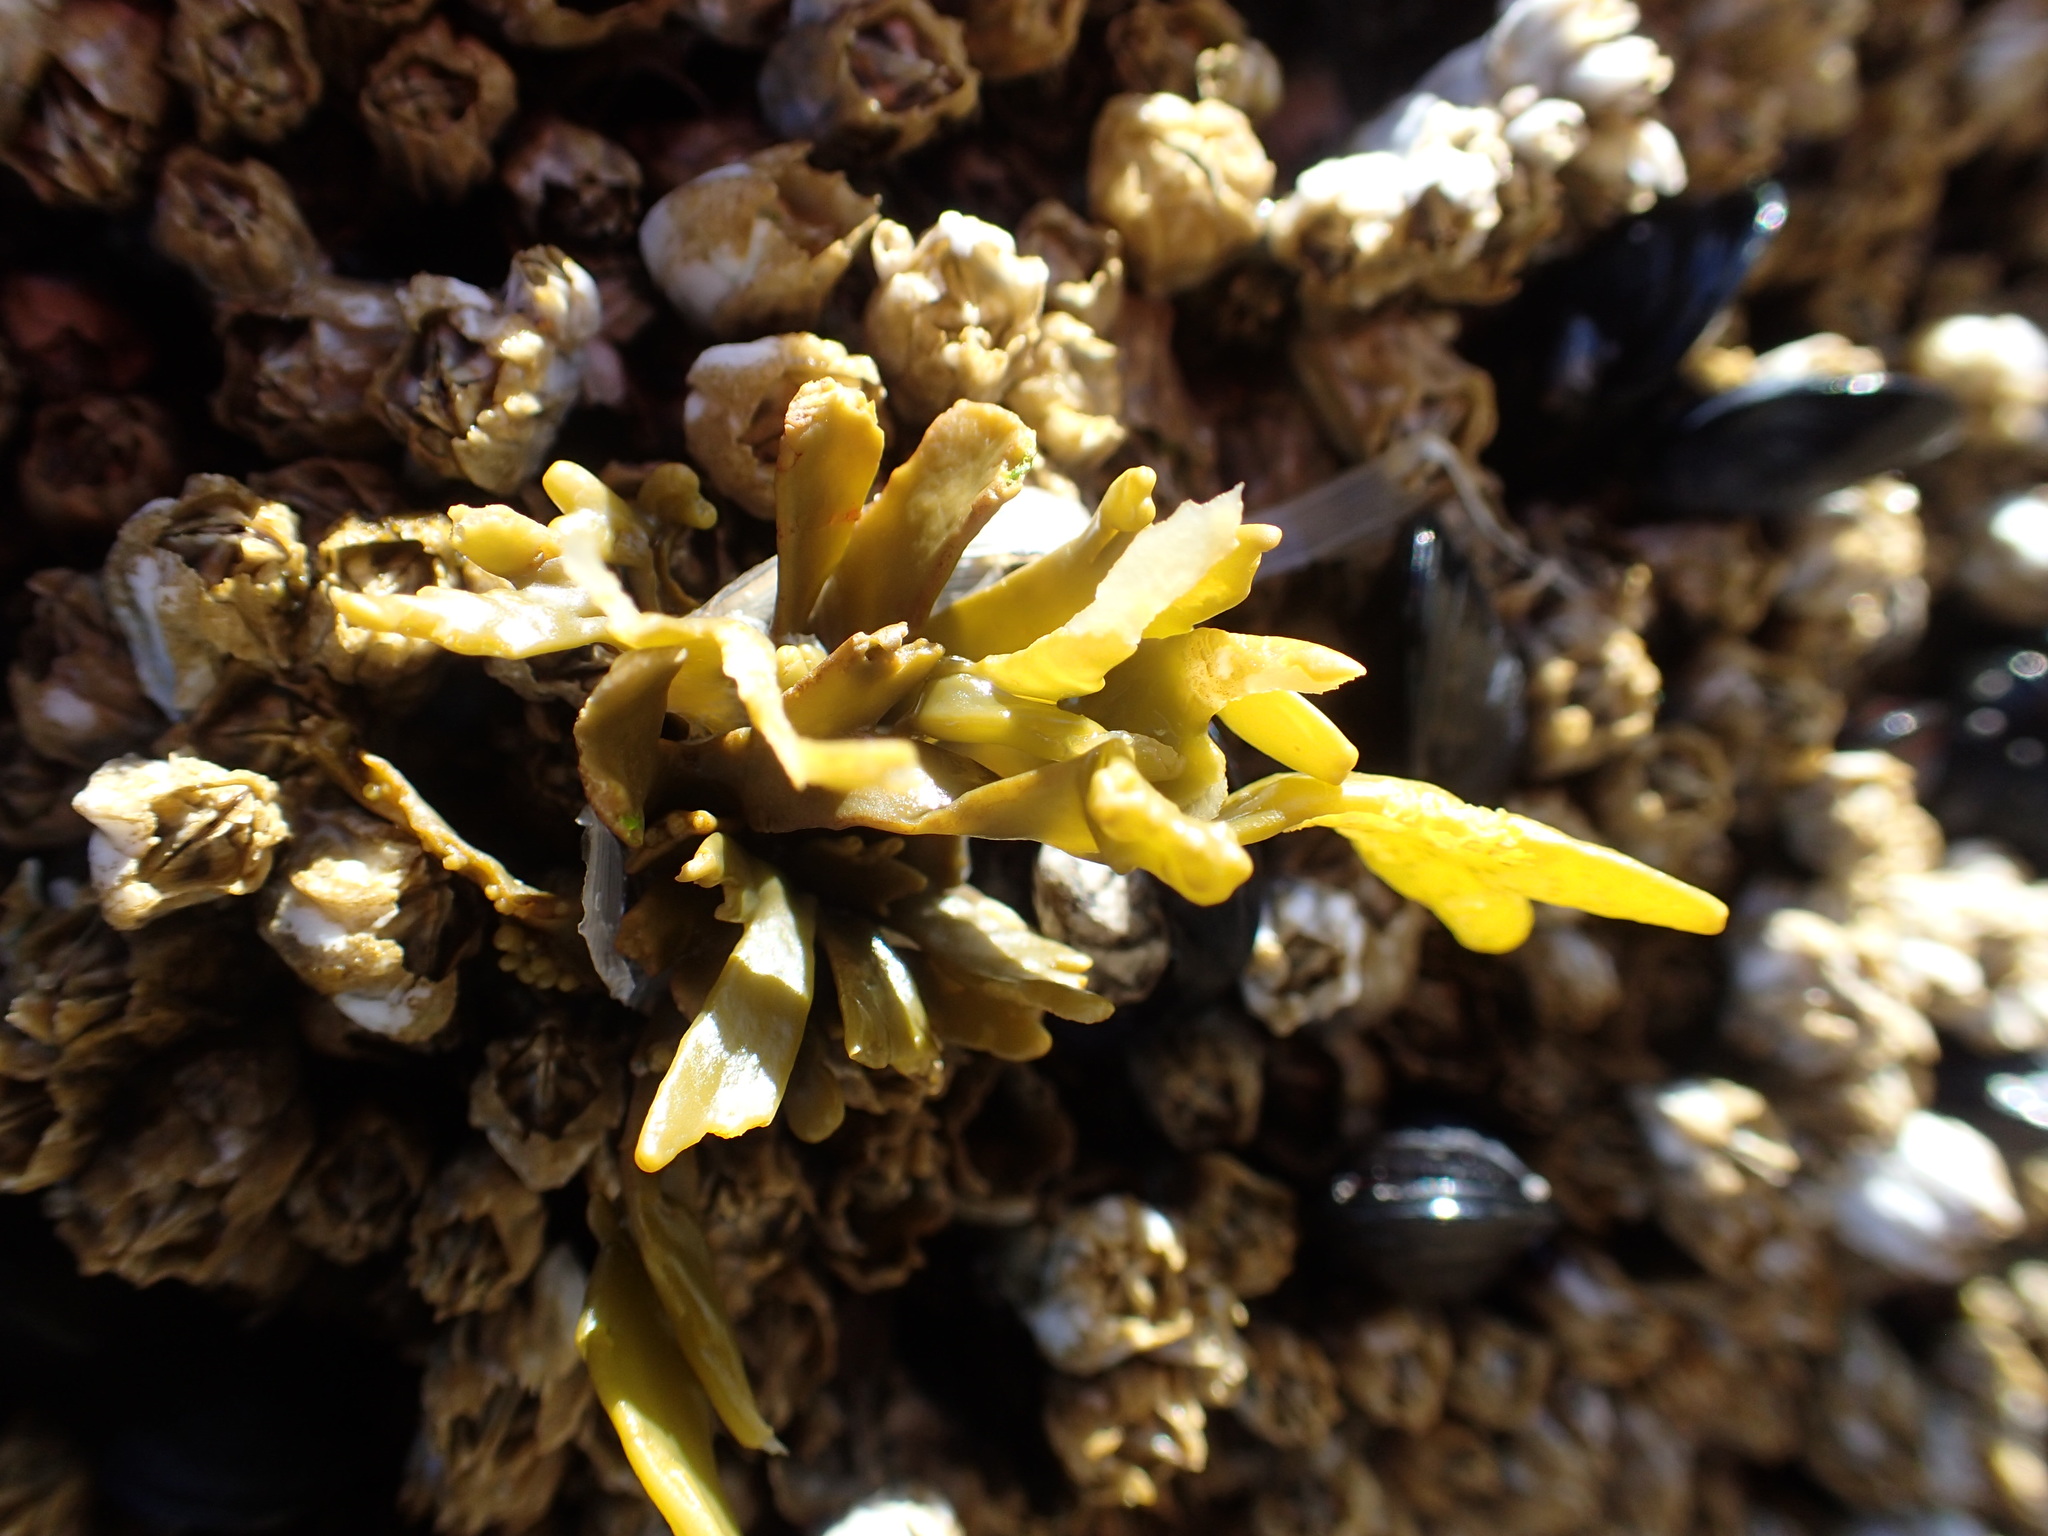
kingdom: Chromista
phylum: Ochrophyta
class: Phaeophyceae
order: Fucales
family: Fucaceae
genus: Pelvetiopsis
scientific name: Pelvetiopsis limitata
